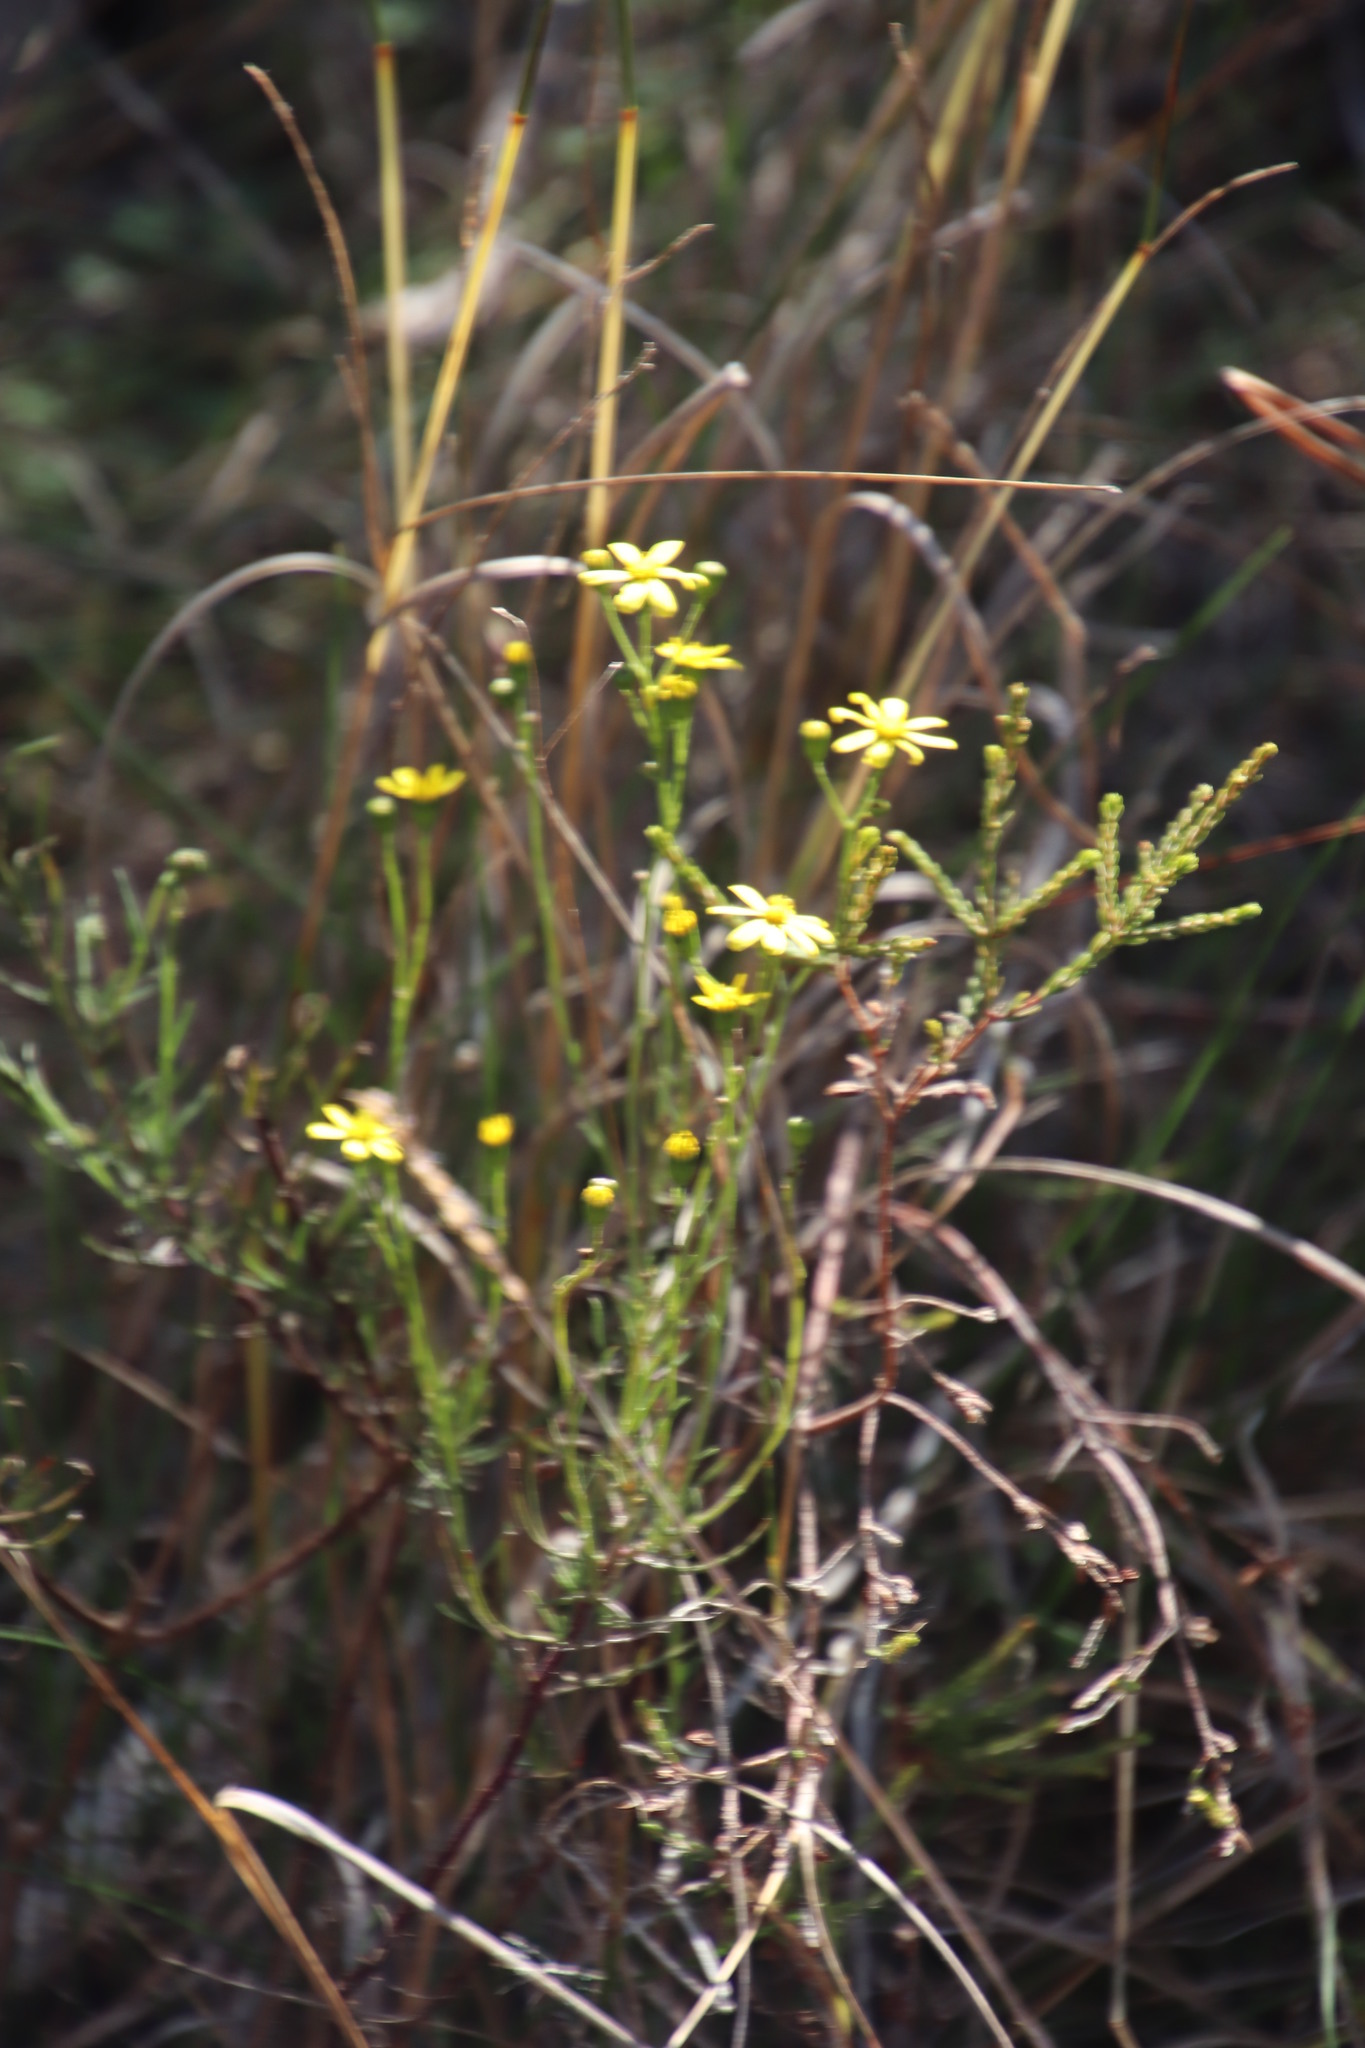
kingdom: Plantae
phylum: Tracheophyta
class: Magnoliopsida
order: Asterales
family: Asteraceae
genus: Senecio
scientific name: Senecio burchellii
